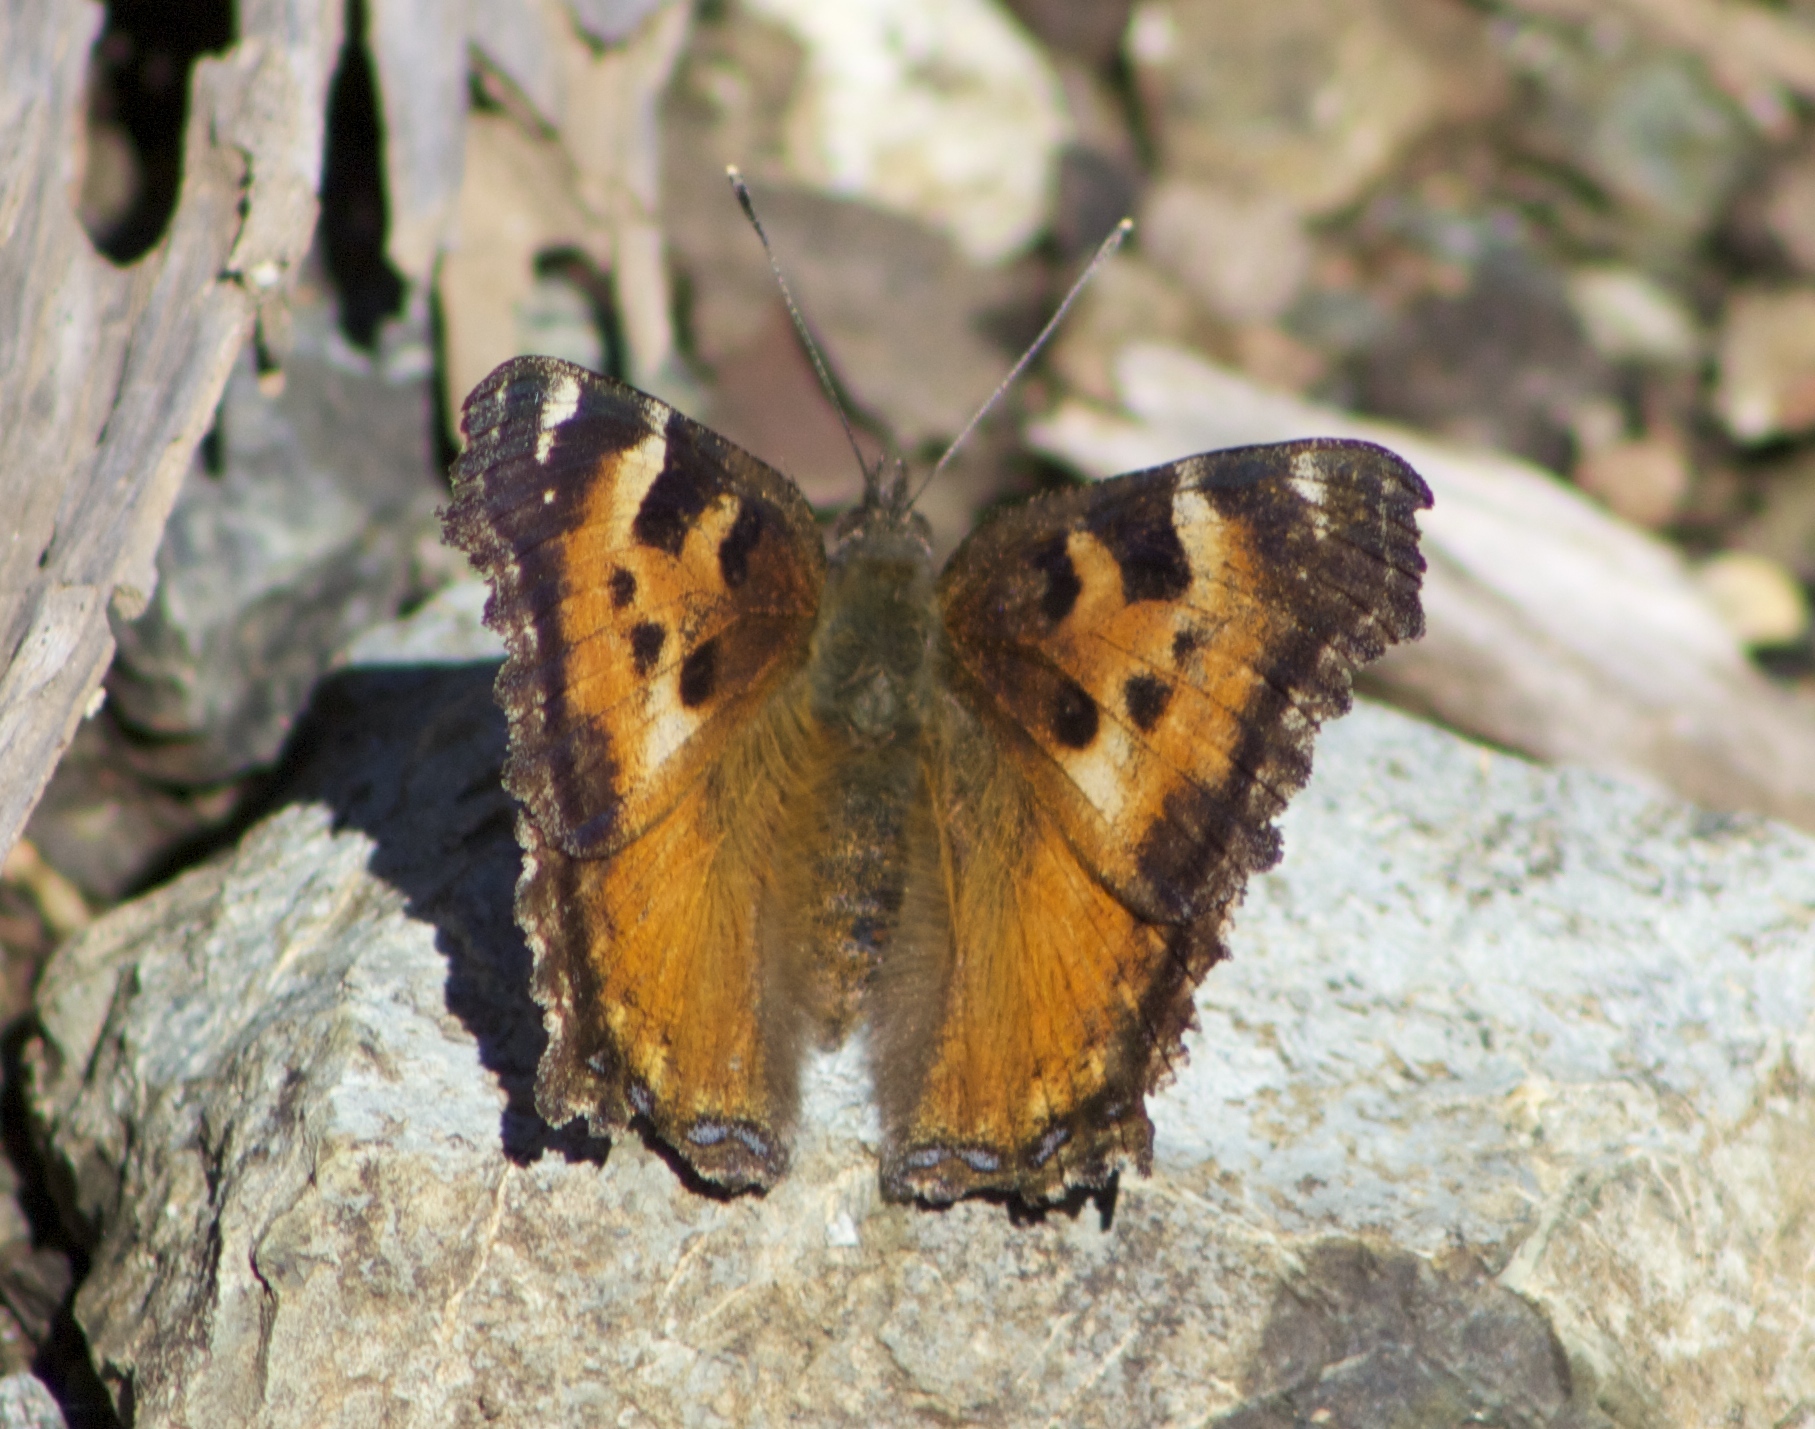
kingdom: Animalia
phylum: Arthropoda
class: Insecta
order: Lepidoptera
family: Nymphalidae
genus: Nymphalis
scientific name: Nymphalis californica
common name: California tortoiseshell
